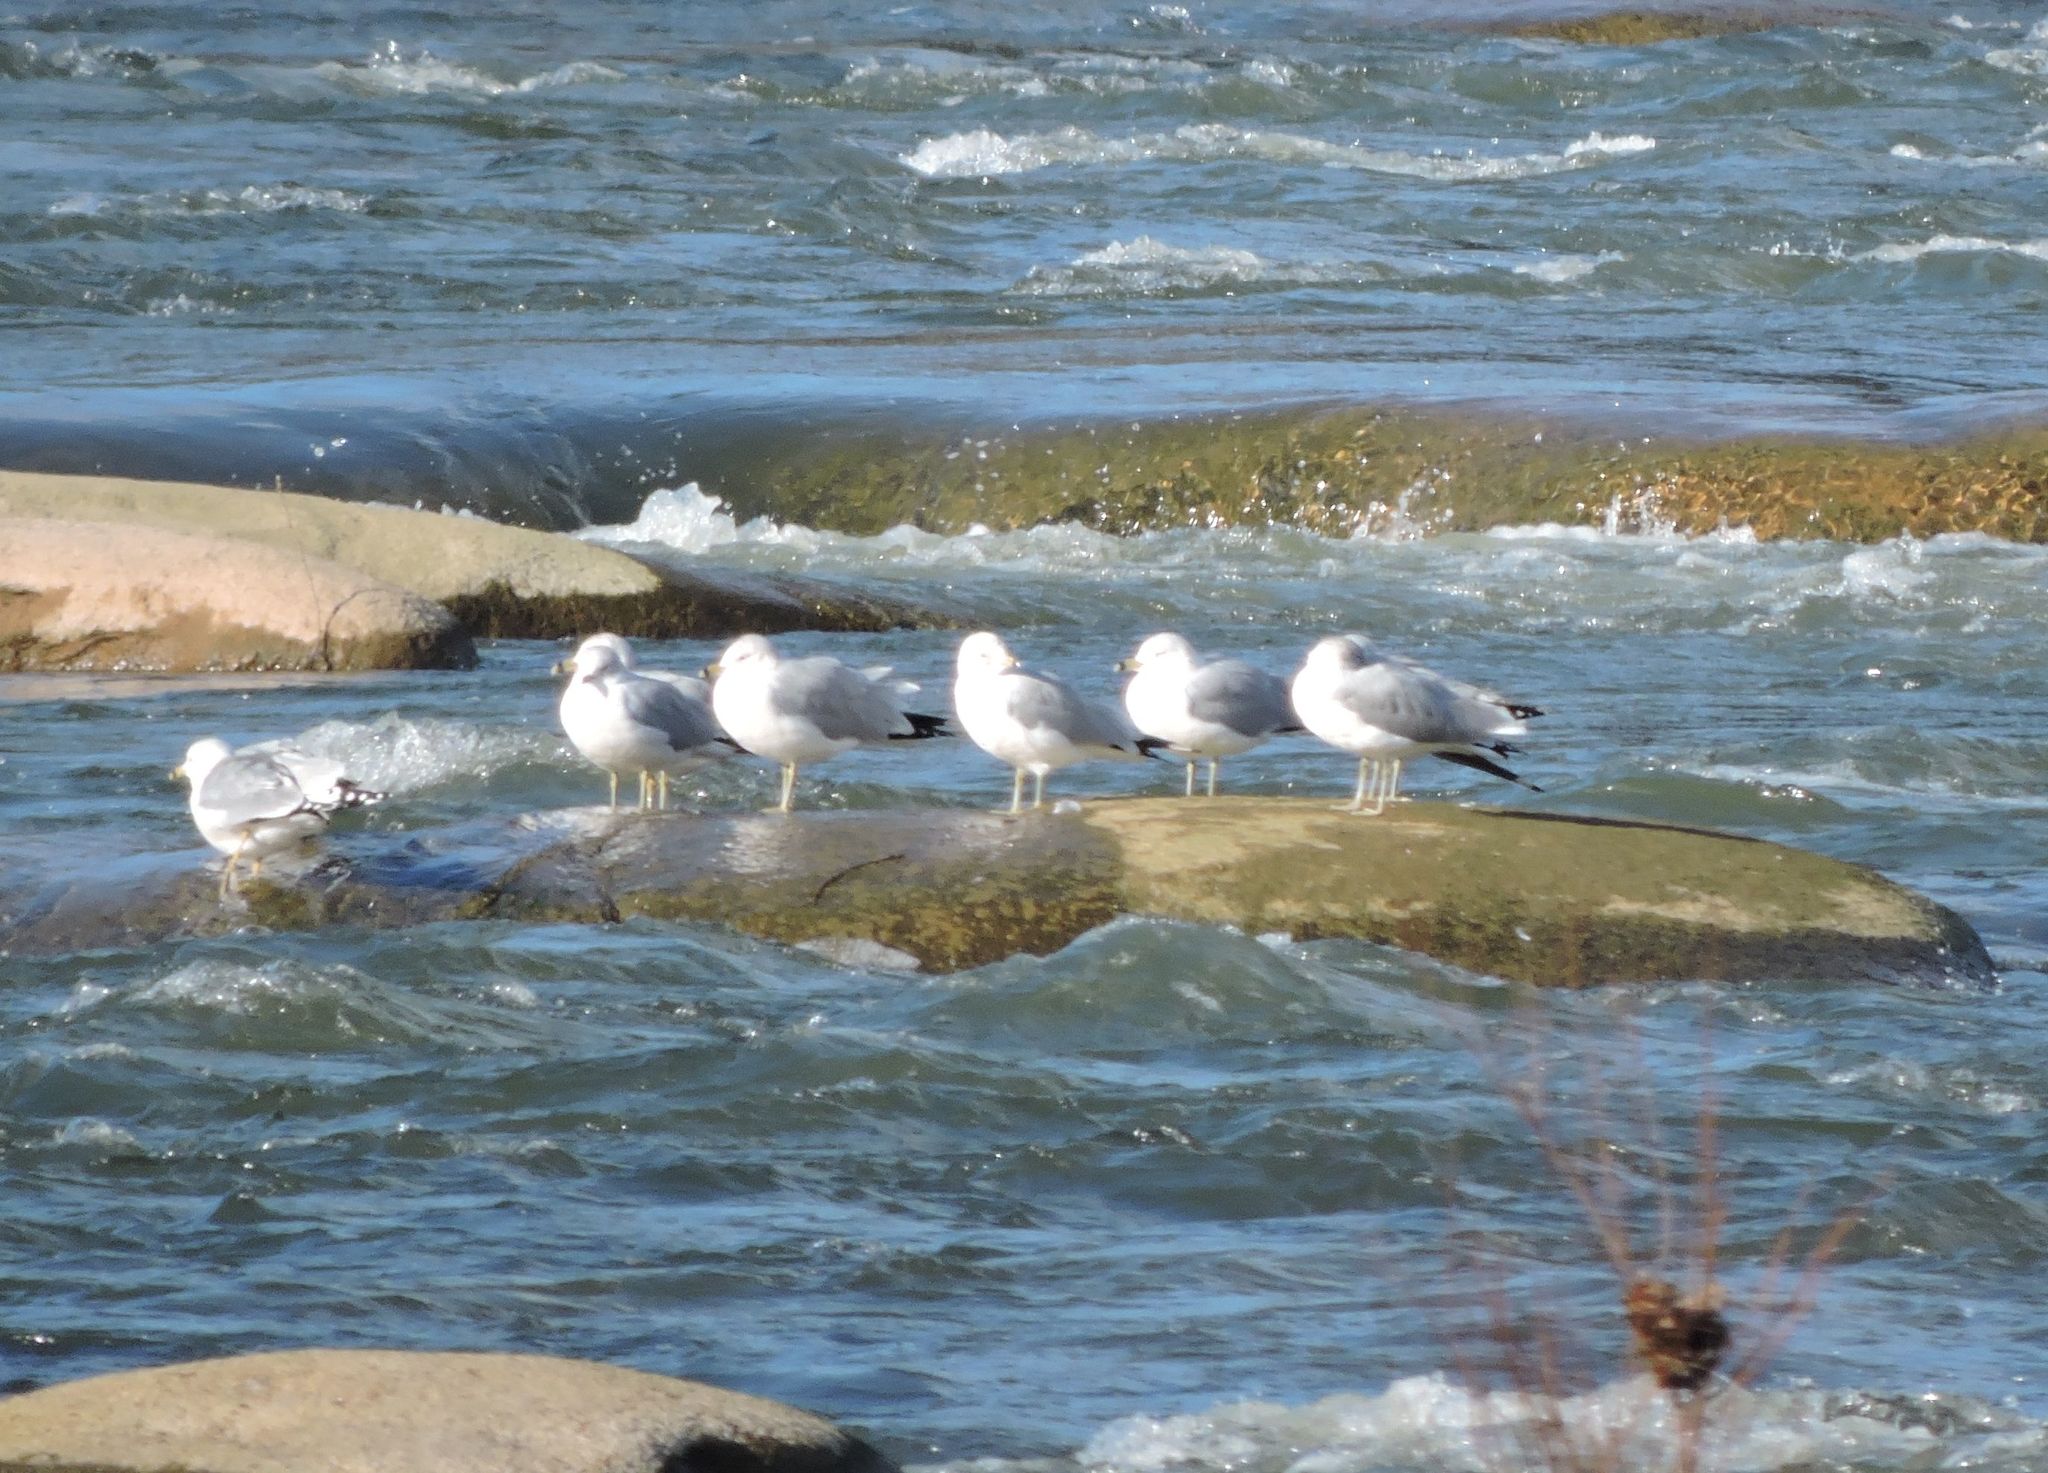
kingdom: Animalia
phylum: Chordata
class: Aves
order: Charadriiformes
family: Laridae
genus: Larus
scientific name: Larus delawarensis
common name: Ring-billed gull
